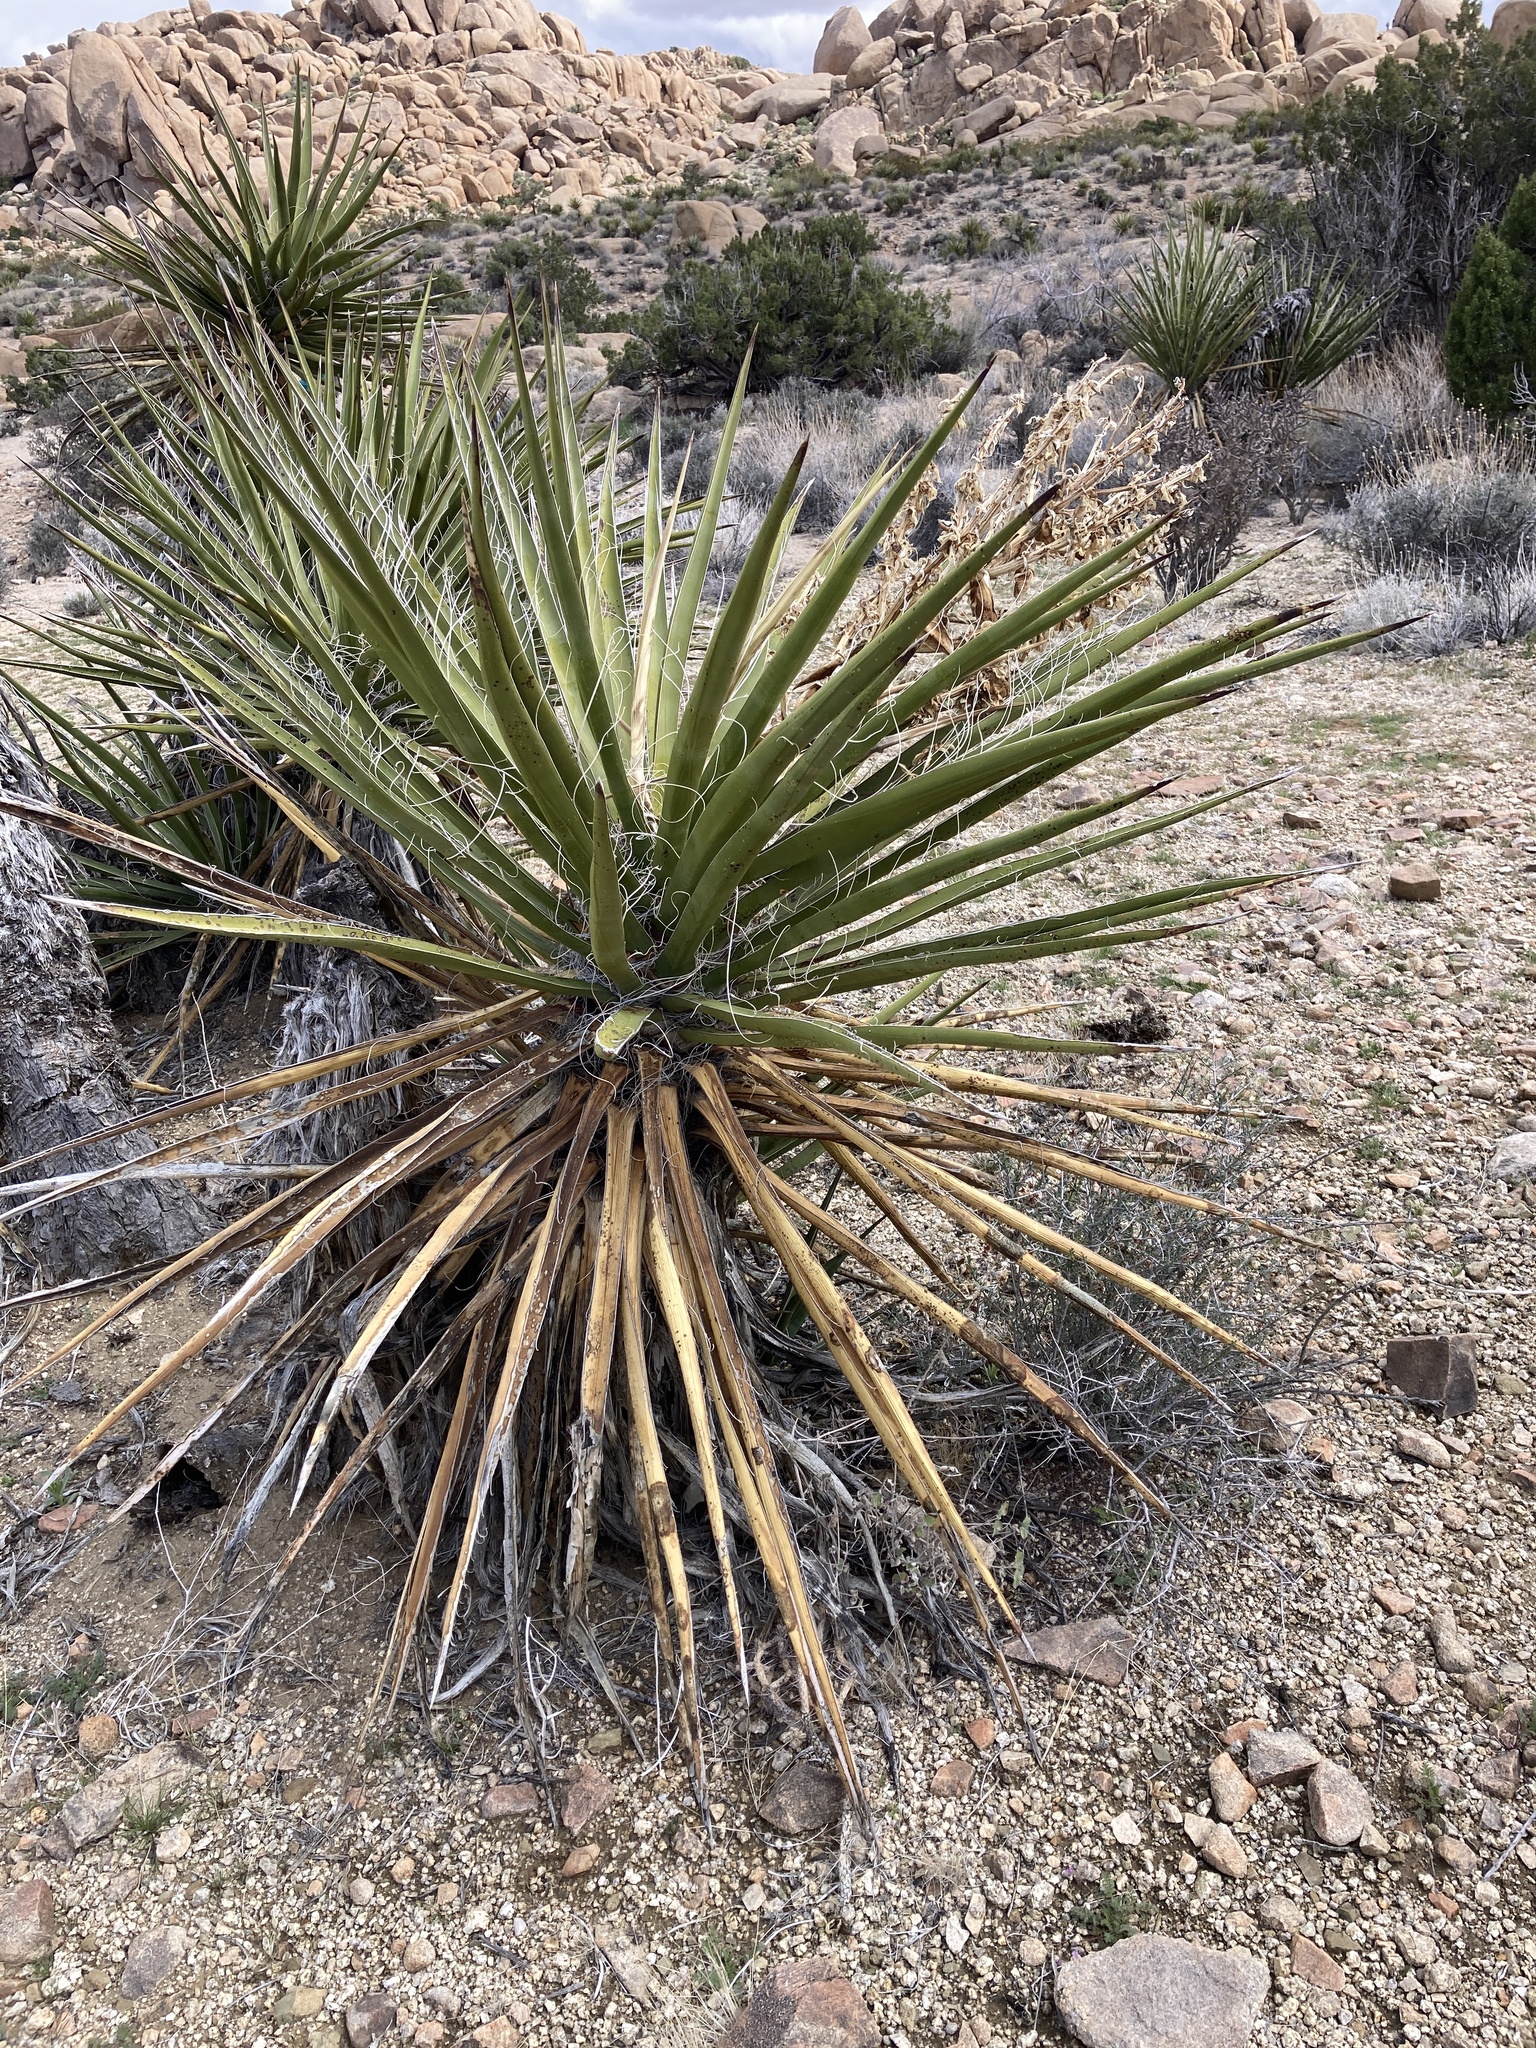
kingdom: Plantae
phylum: Tracheophyta
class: Liliopsida
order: Asparagales
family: Asparagaceae
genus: Yucca
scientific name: Yucca schidigera
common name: Mojave yucca
